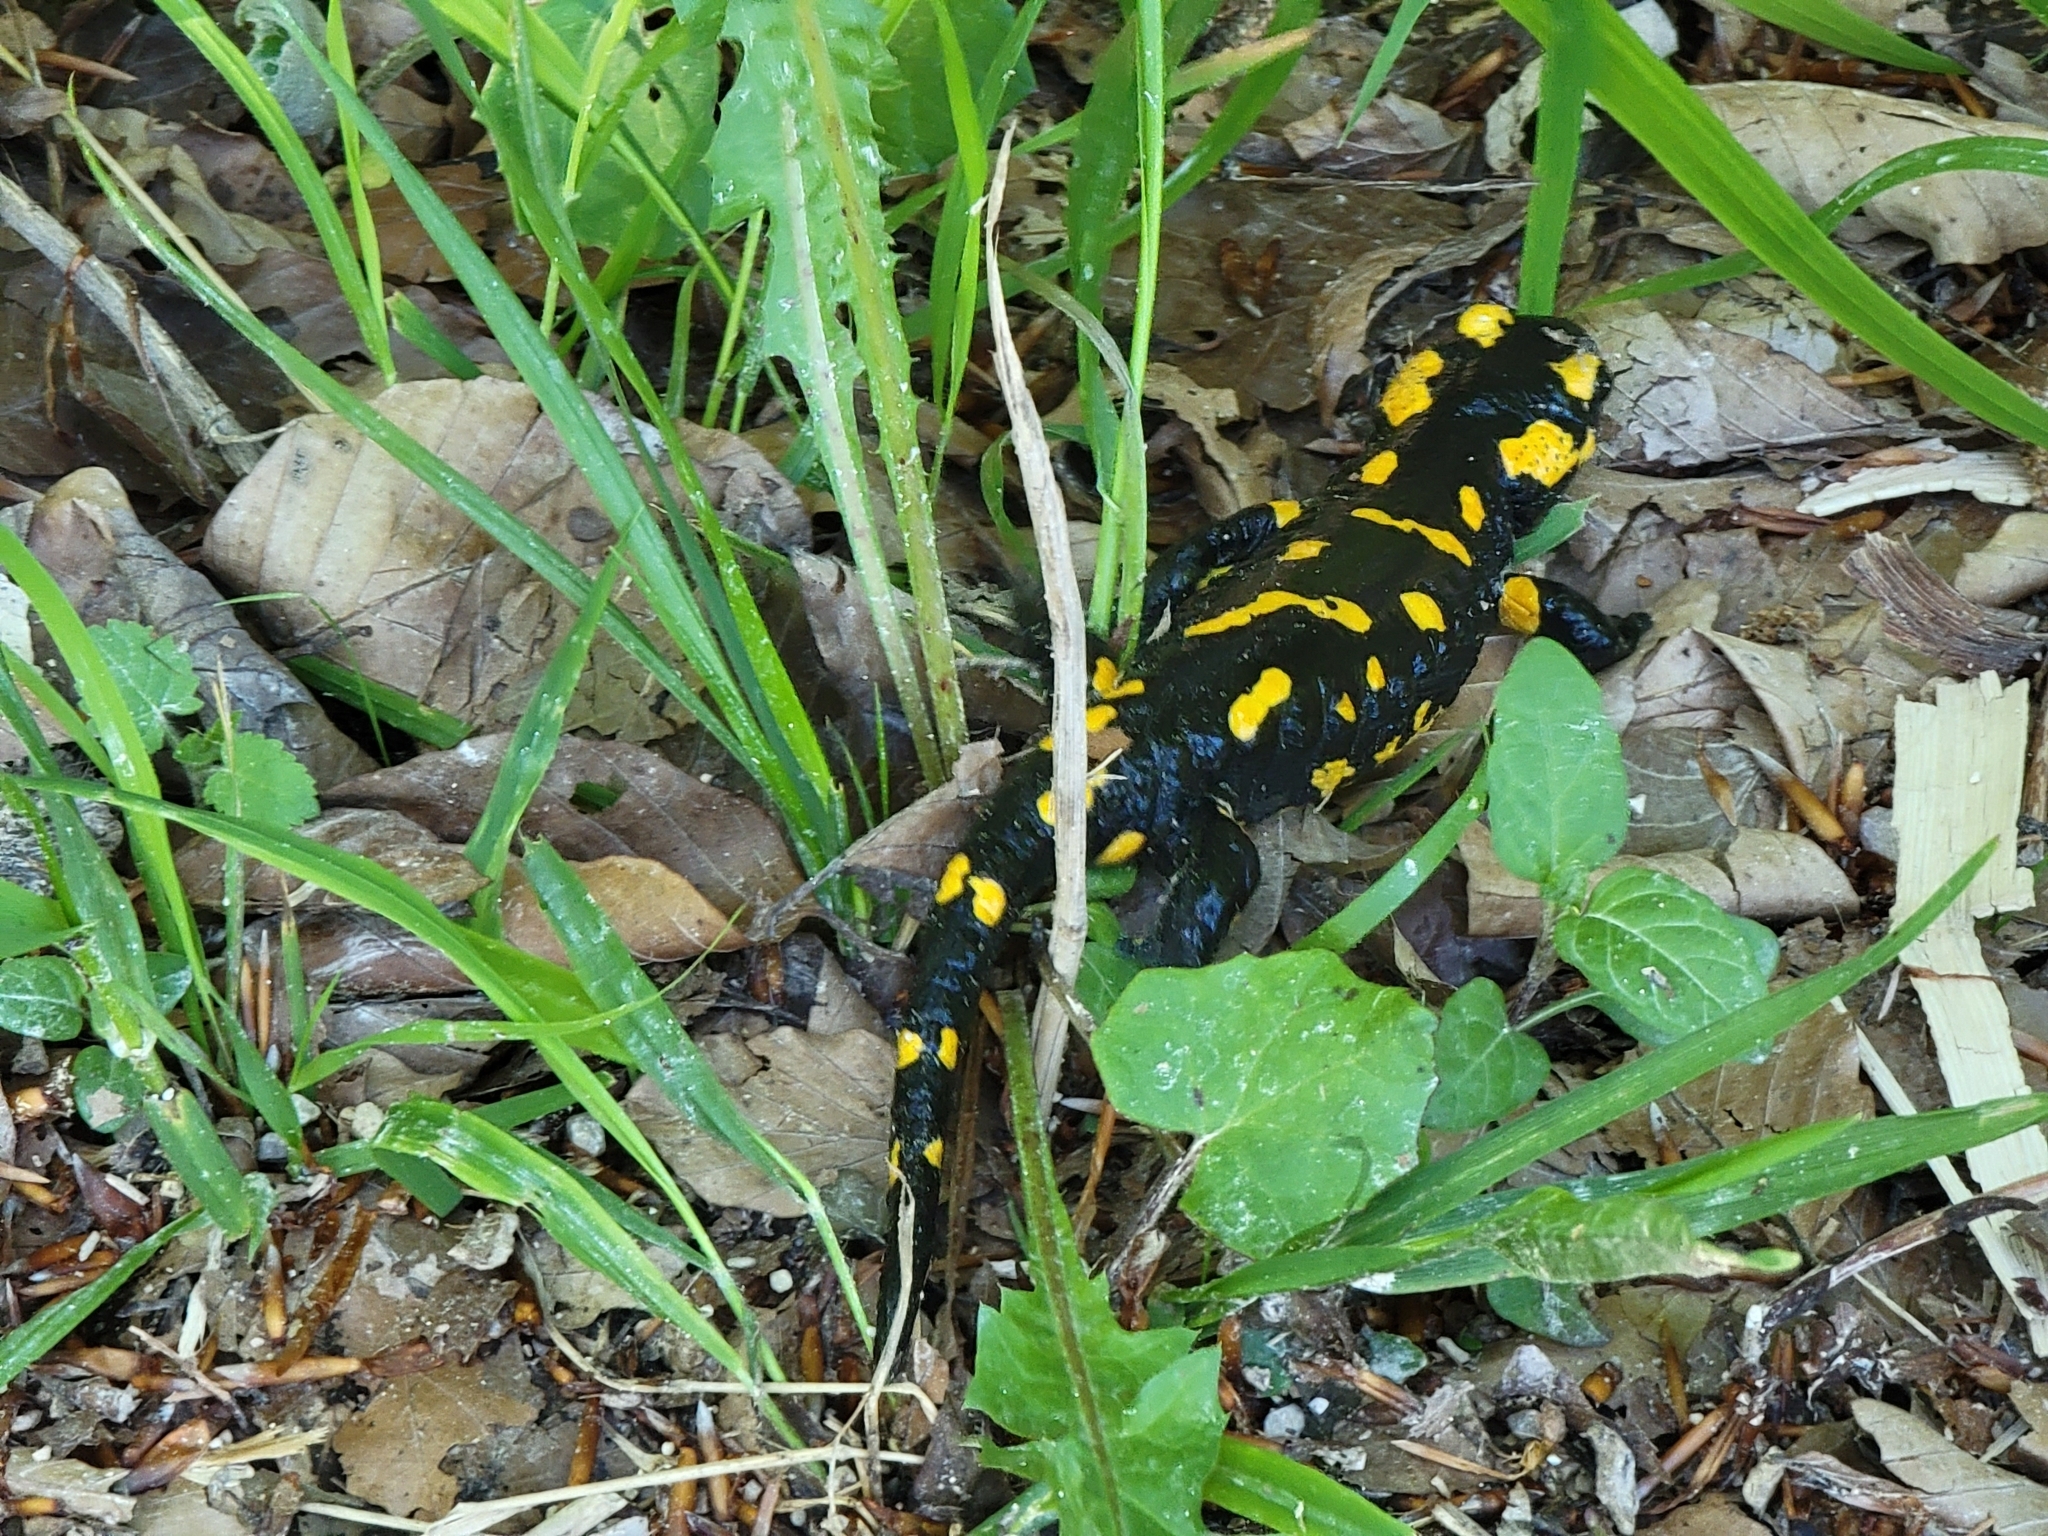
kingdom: Animalia
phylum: Chordata
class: Amphibia
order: Caudata
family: Salamandridae
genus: Salamandra
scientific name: Salamandra salamandra
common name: Fire salamander
